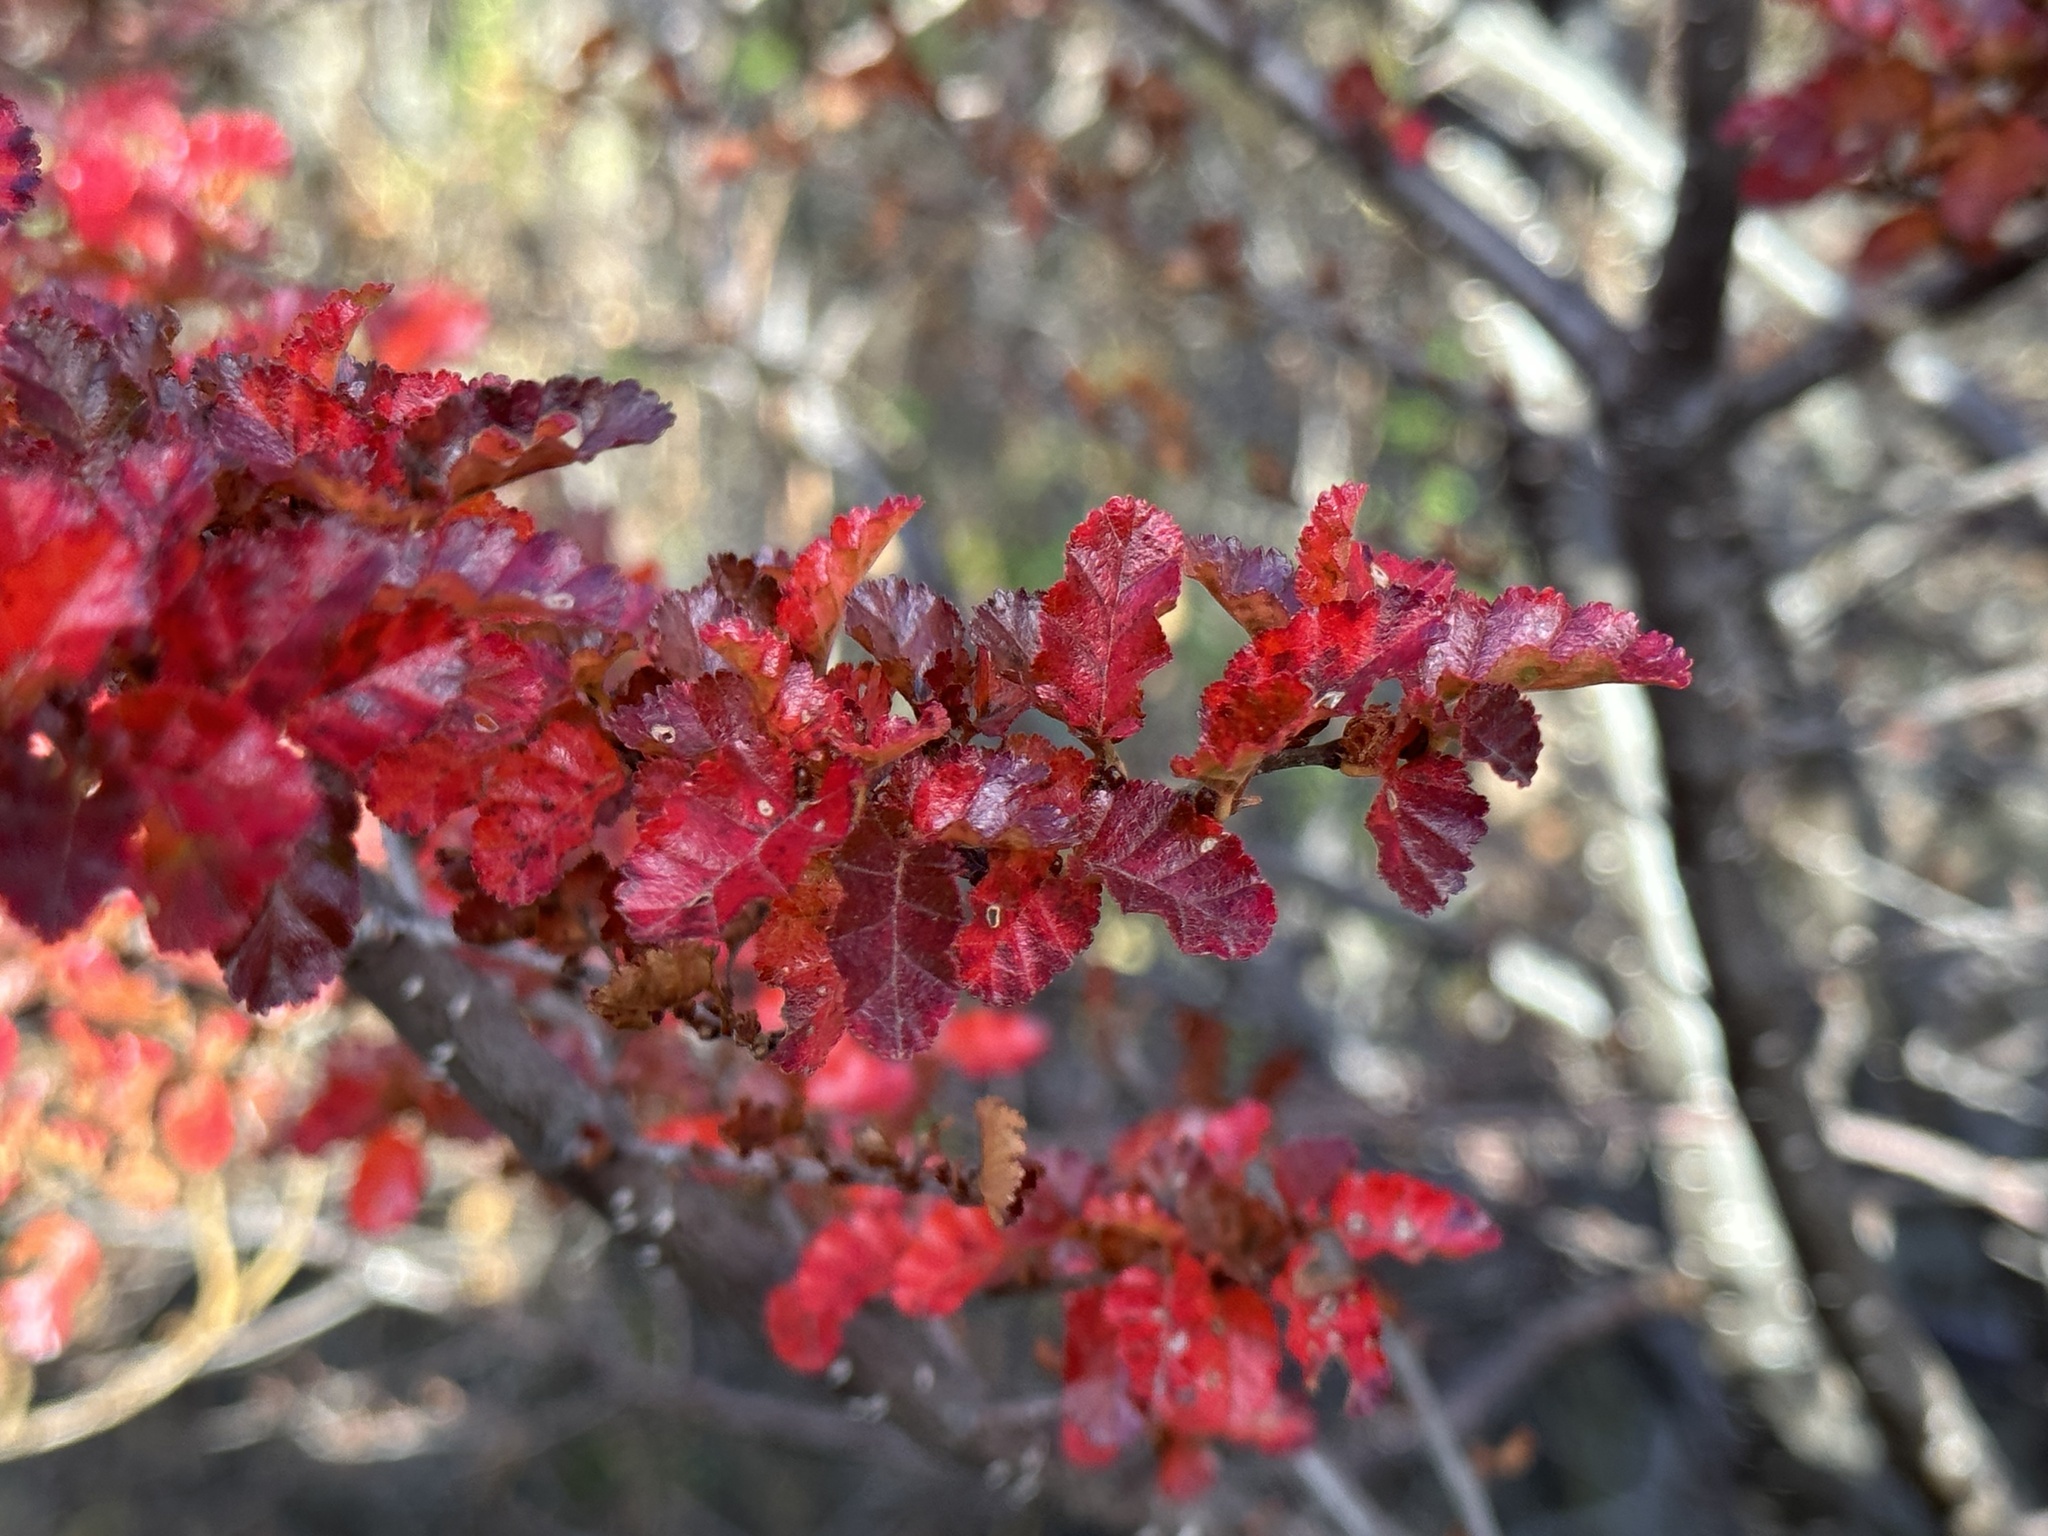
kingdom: Plantae
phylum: Tracheophyta
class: Magnoliopsida
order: Fagales
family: Nothofagaceae
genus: Nothofagus
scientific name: Nothofagus antarctica
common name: Antarctic beech
